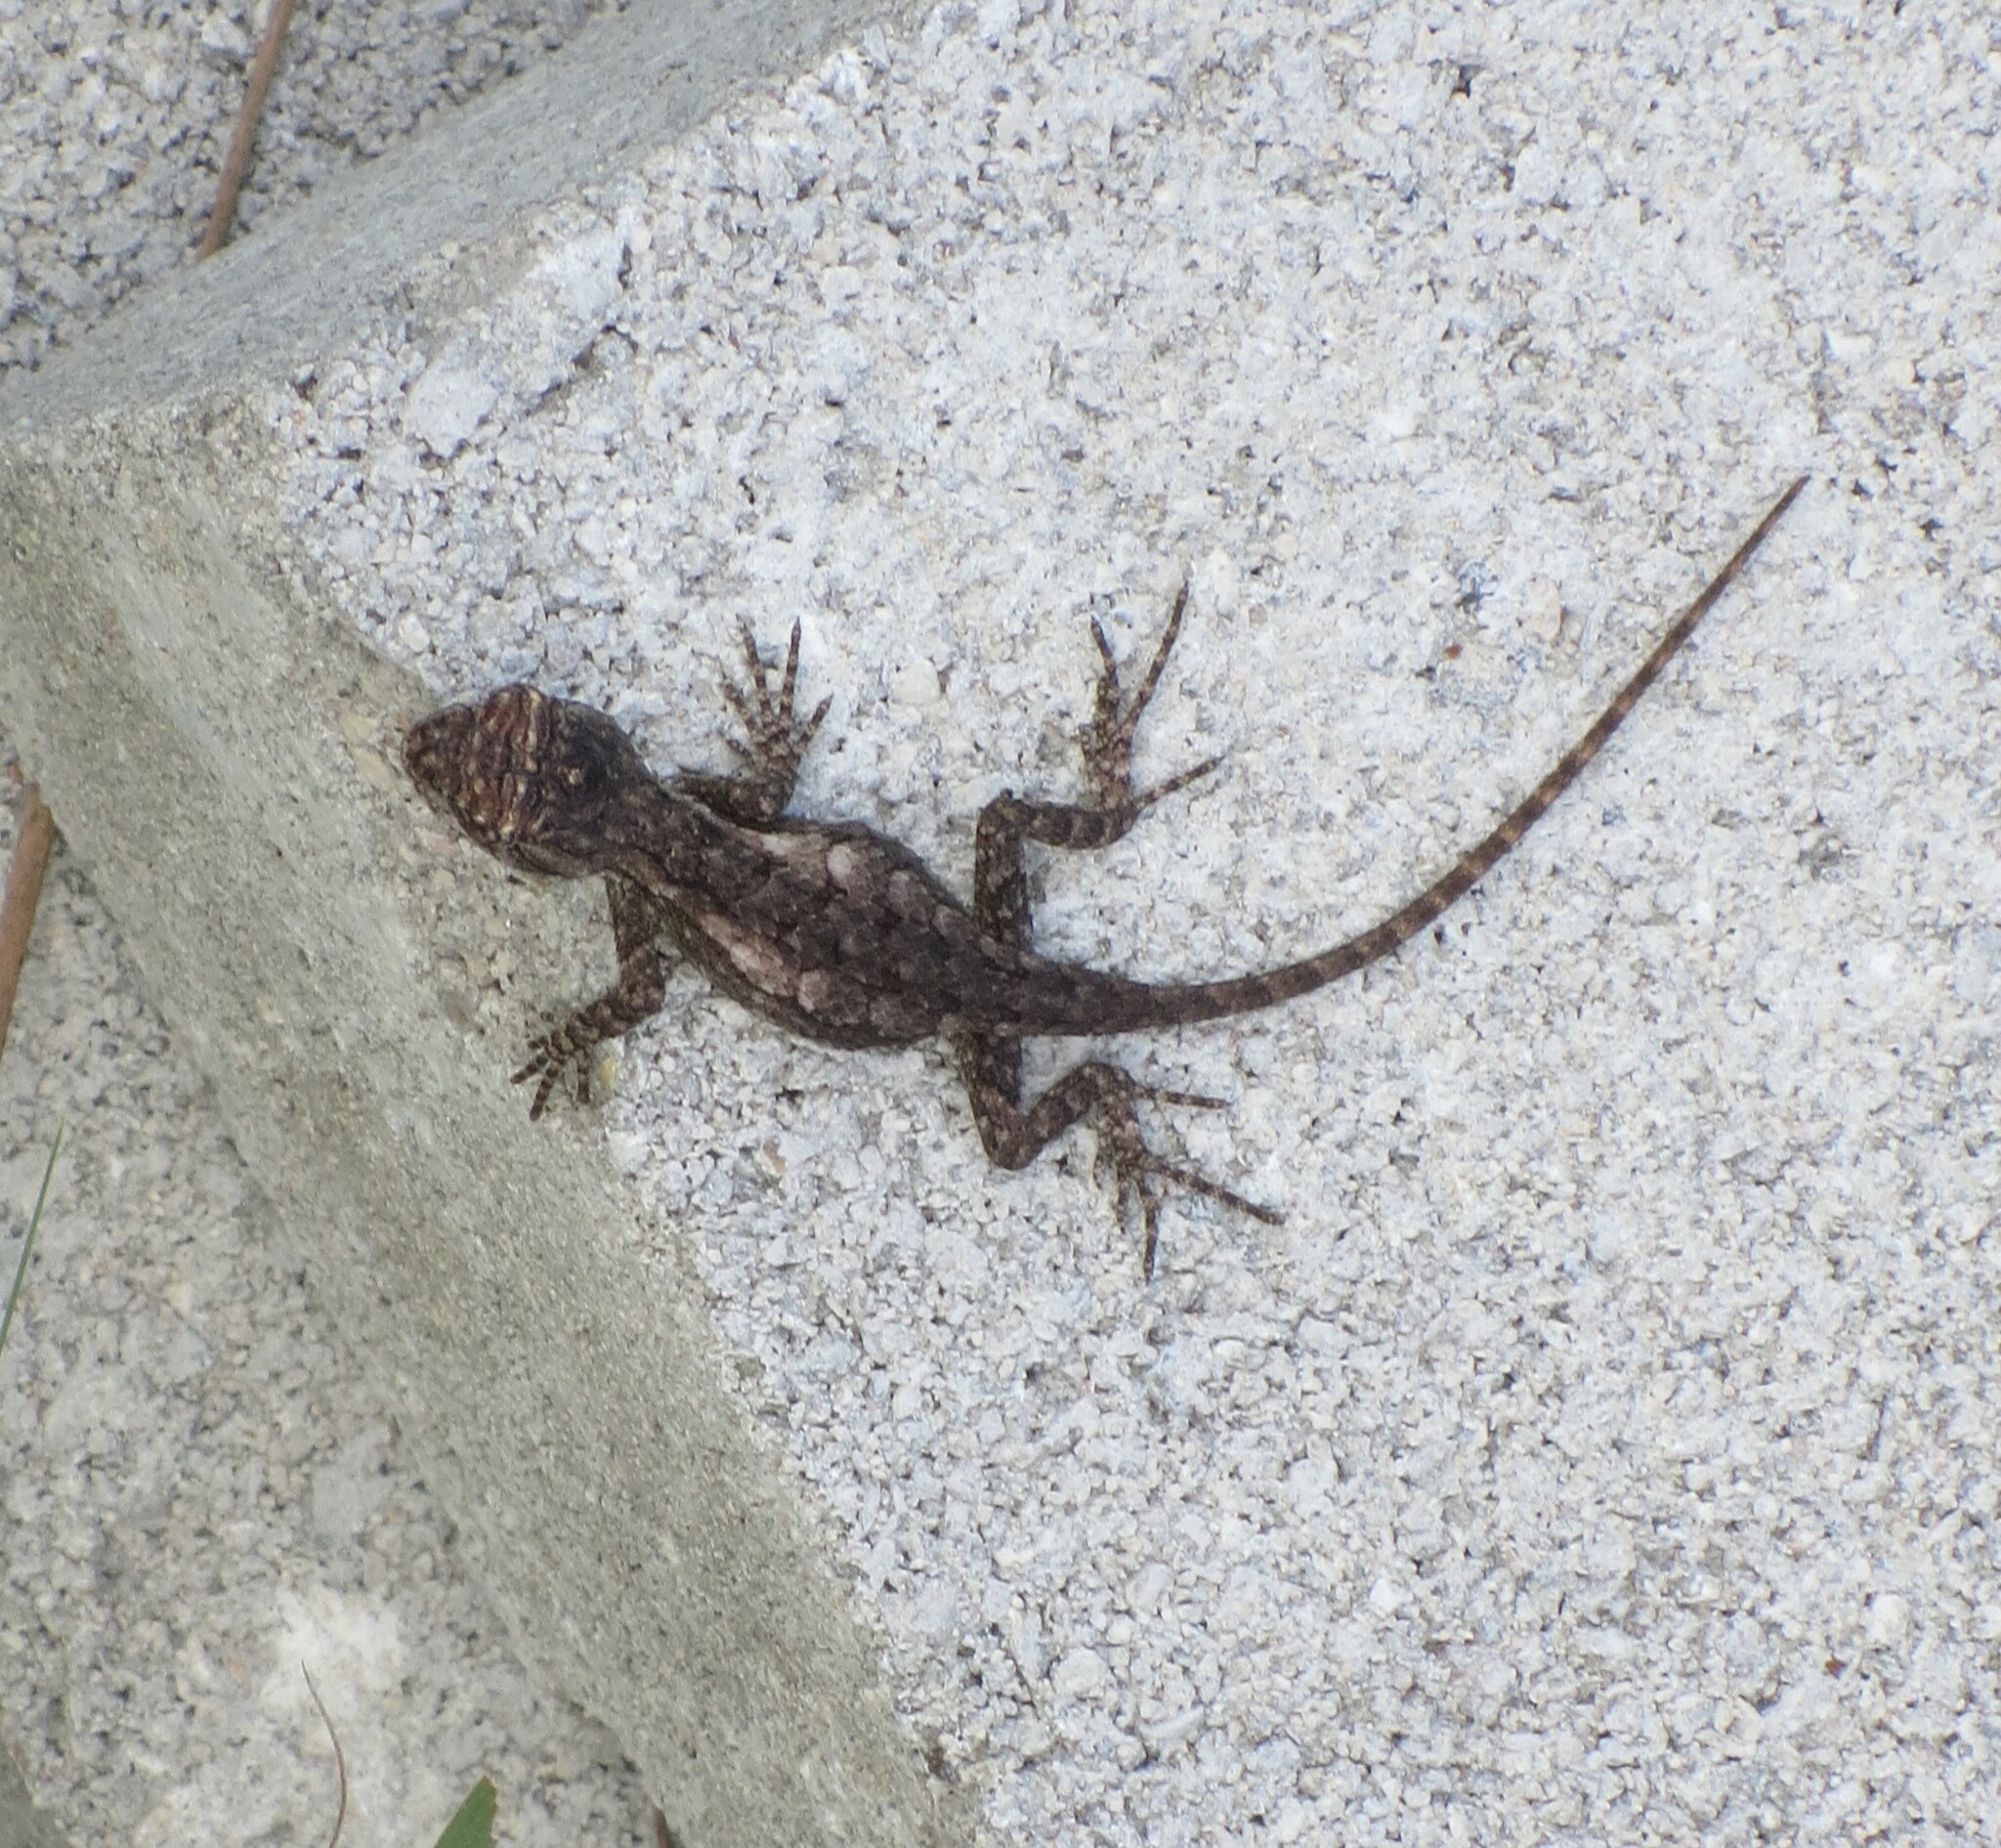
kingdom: Animalia
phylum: Chordata
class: Squamata
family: Phrynosomatidae
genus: Sceloporus
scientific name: Sceloporus olivaceus
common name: Texas spiny lizard
